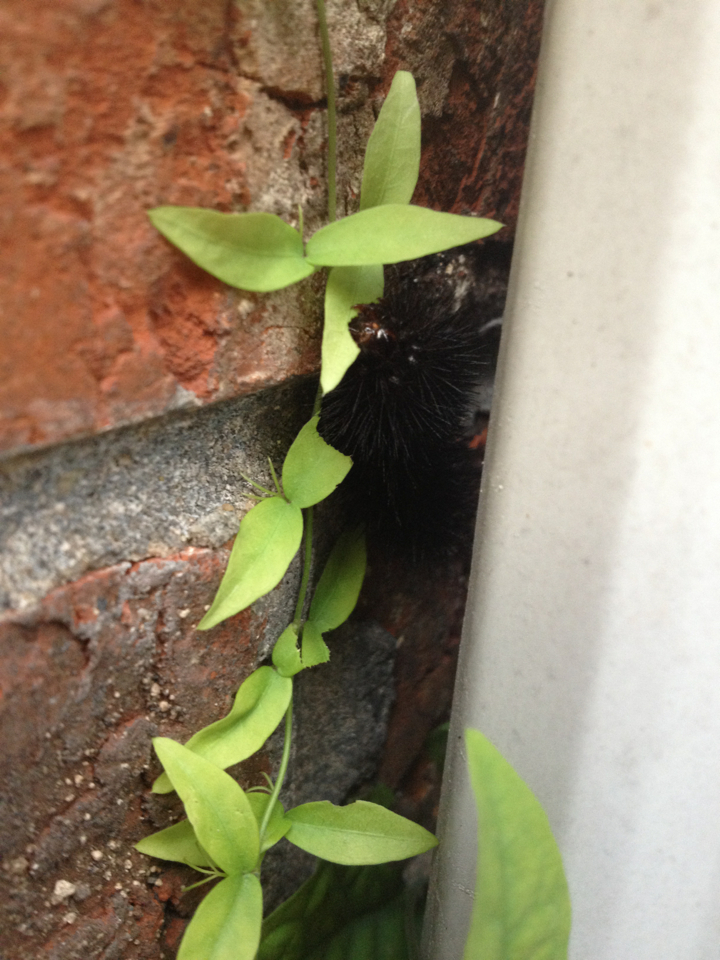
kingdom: Animalia
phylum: Arthropoda
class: Insecta
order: Lepidoptera
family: Erebidae
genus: Hypercompe
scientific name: Hypercompe scribonia
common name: Giant leopard moth
